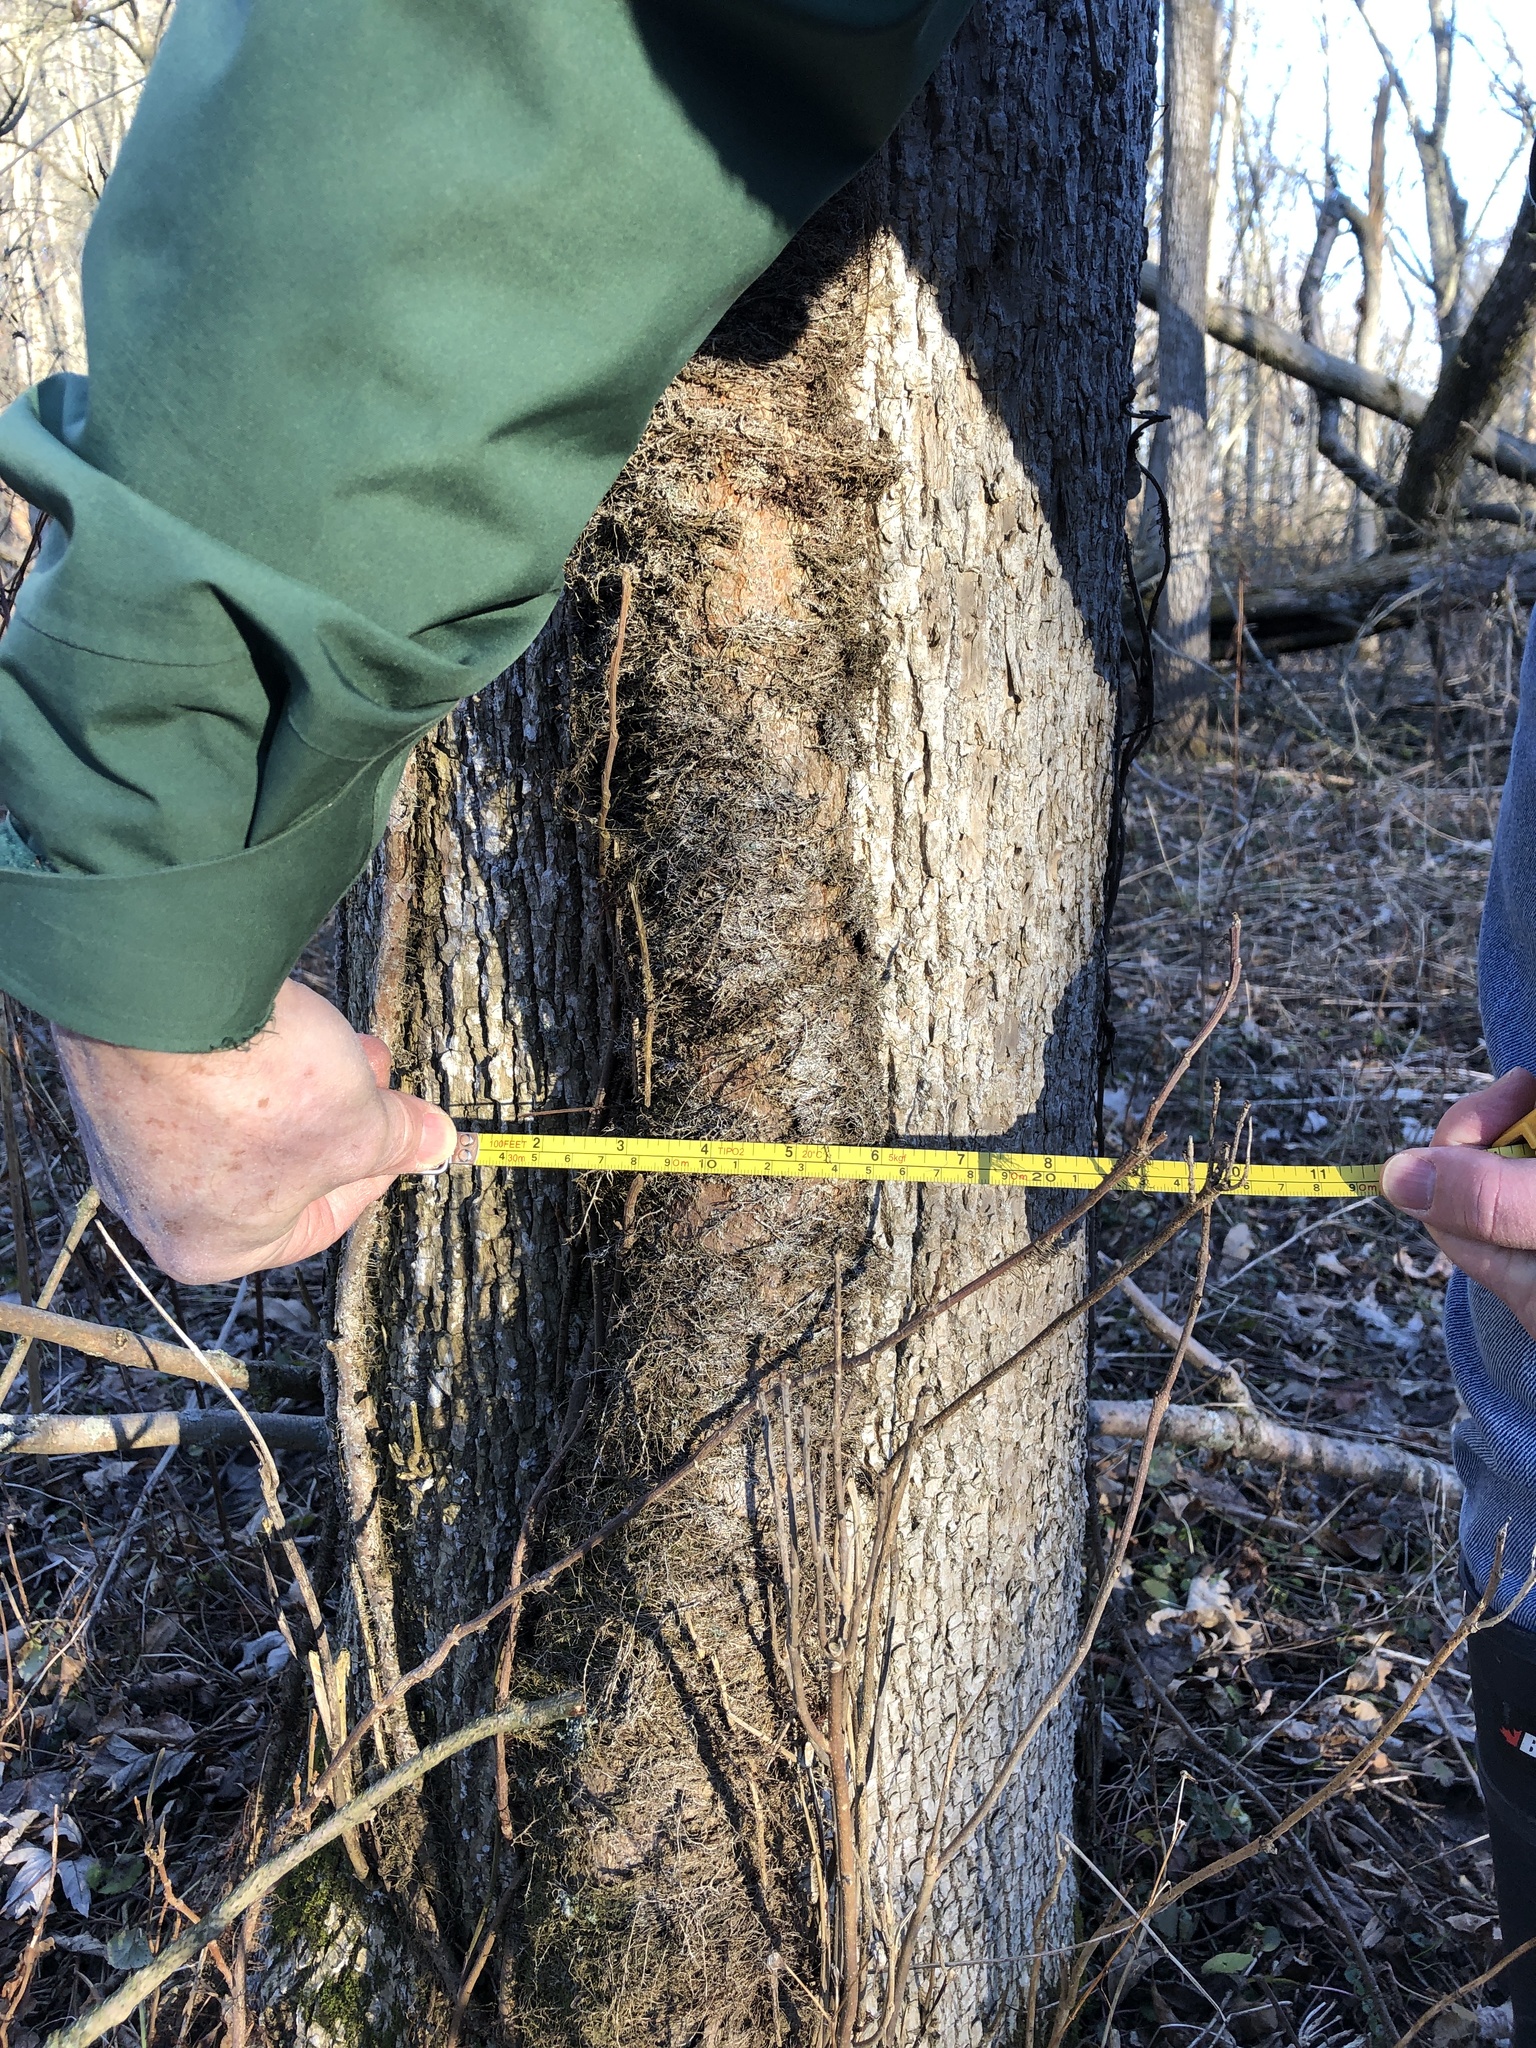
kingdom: Plantae
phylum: Tracheophyta
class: Magnoliopsida
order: Sapindales
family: Anacardiaceae
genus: Toxicodendron
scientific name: Toxicodendron radicans
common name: Poison ivy
